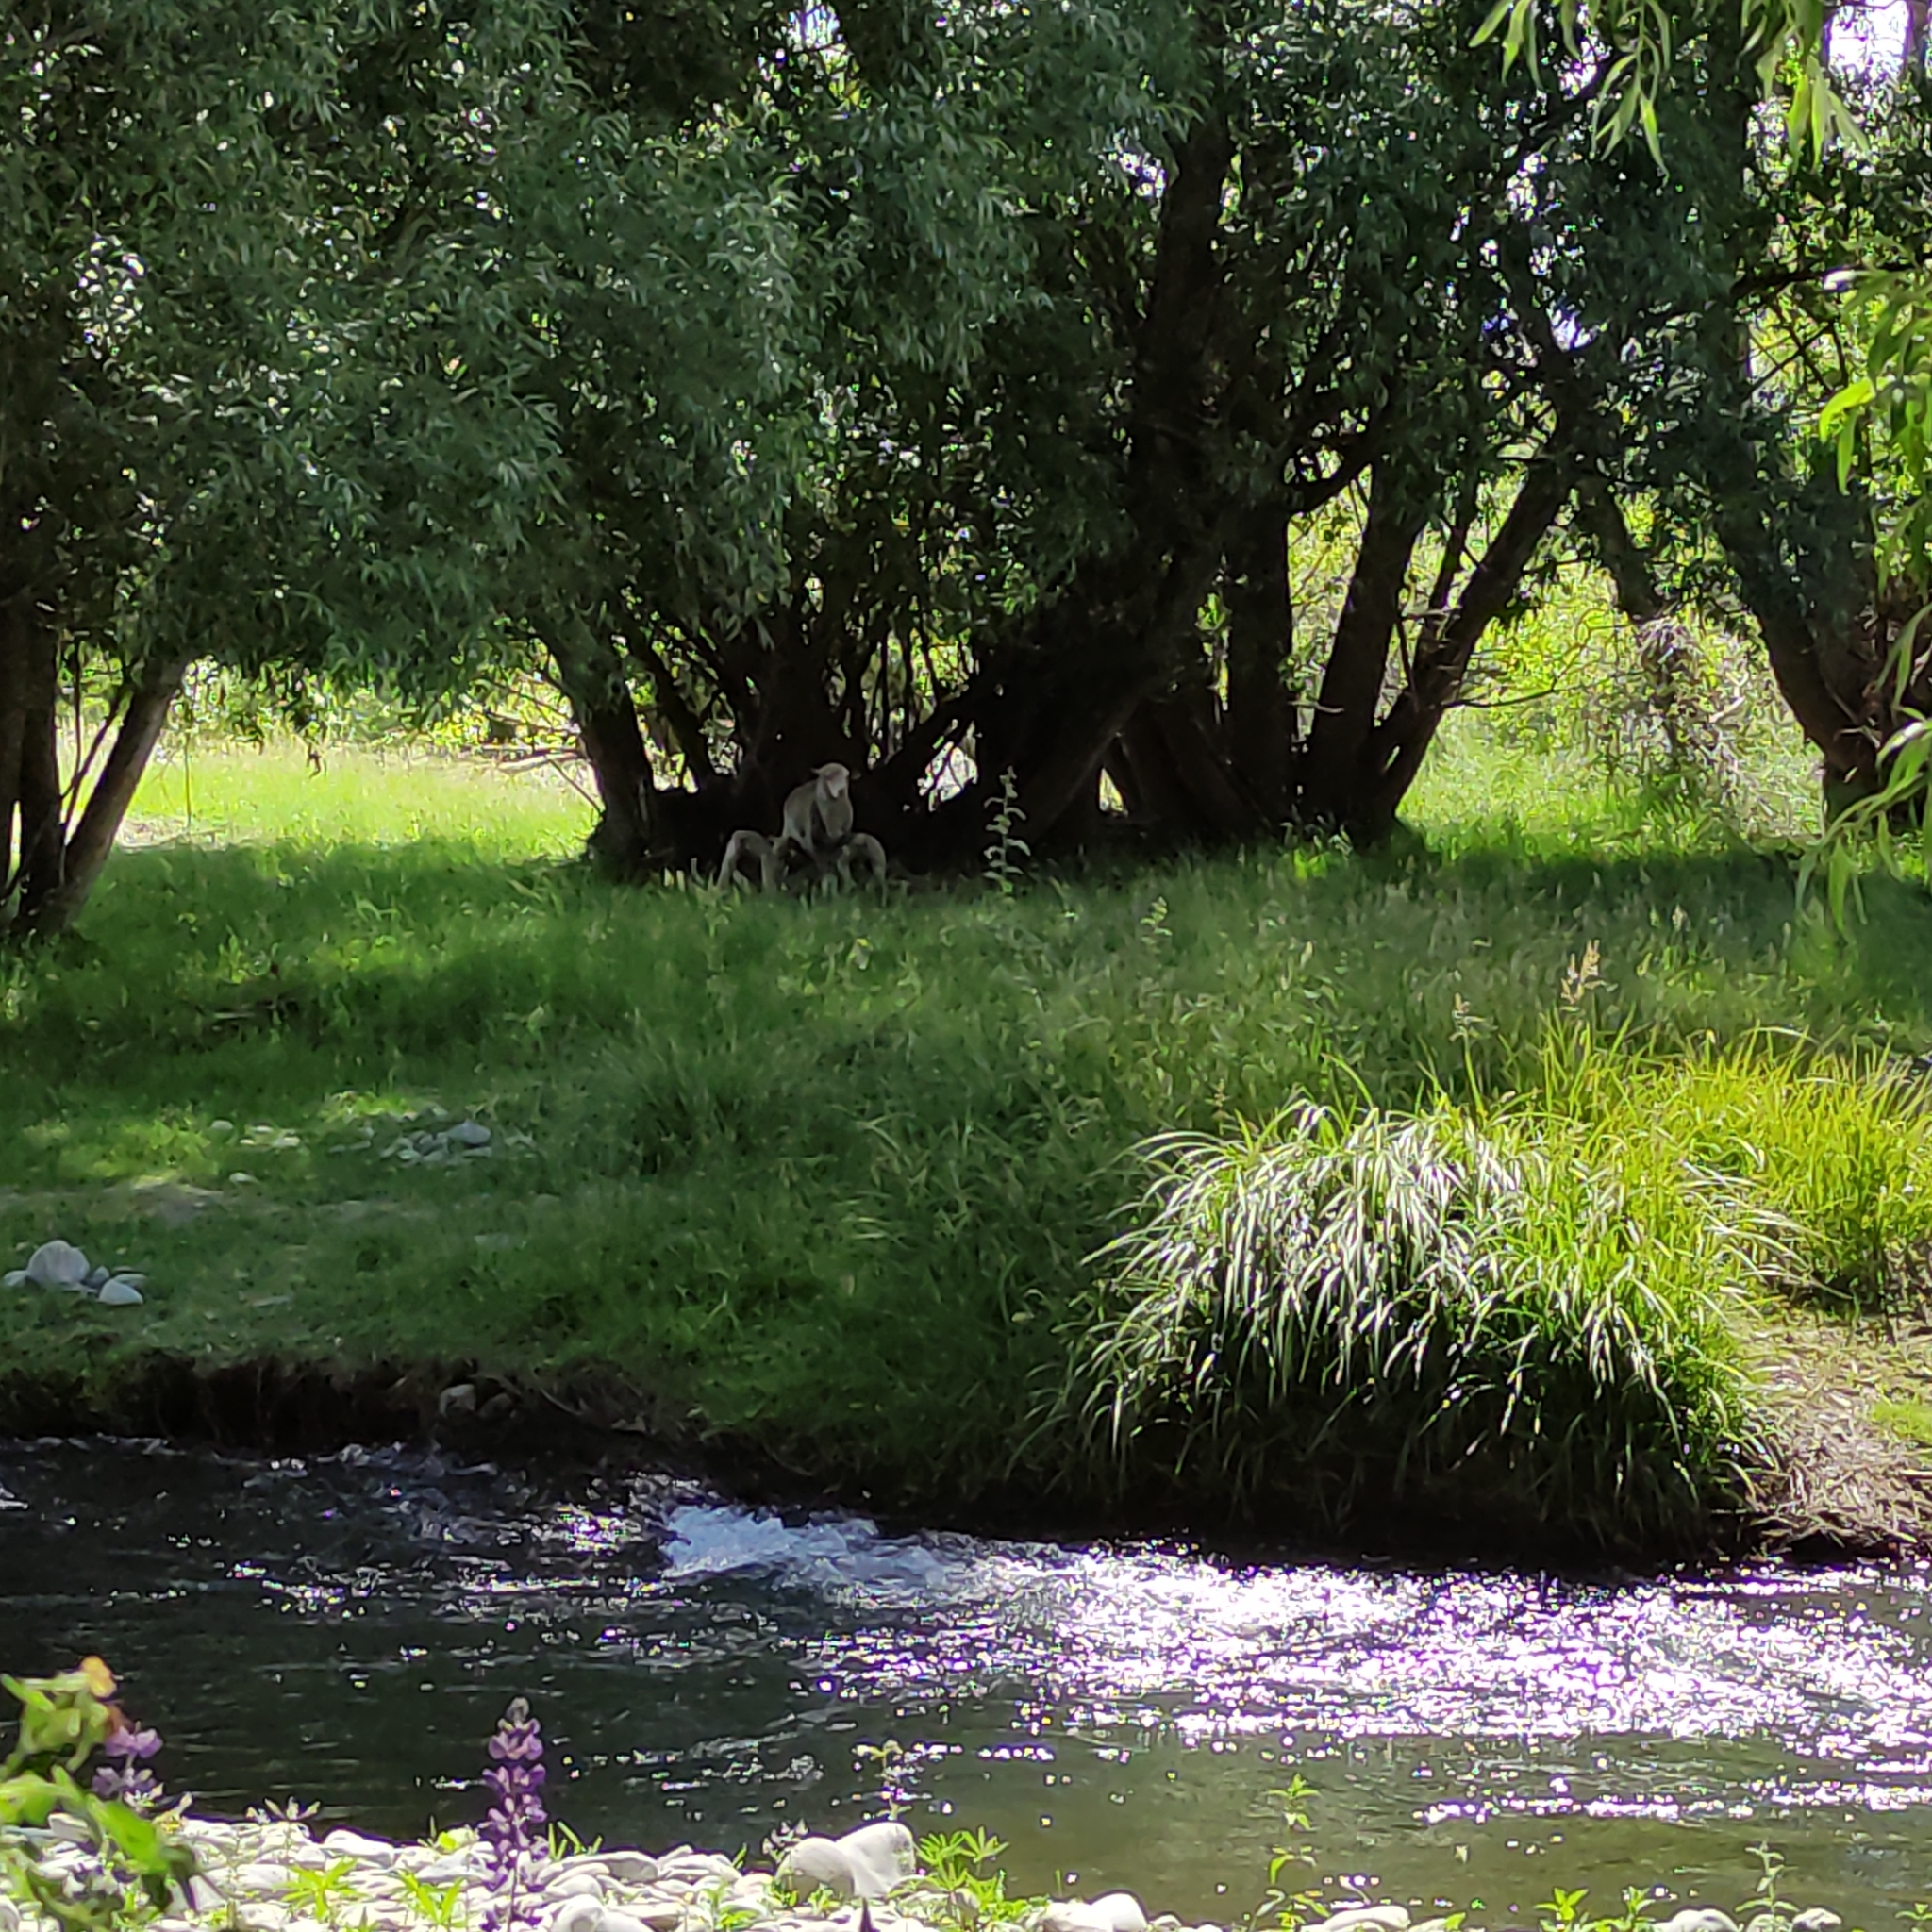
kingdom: Animalia
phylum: Chordata
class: Mammalia
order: Artiodactyla
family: Bovidae
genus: Ovis
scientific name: Ovis aries
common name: Domestic sheep
